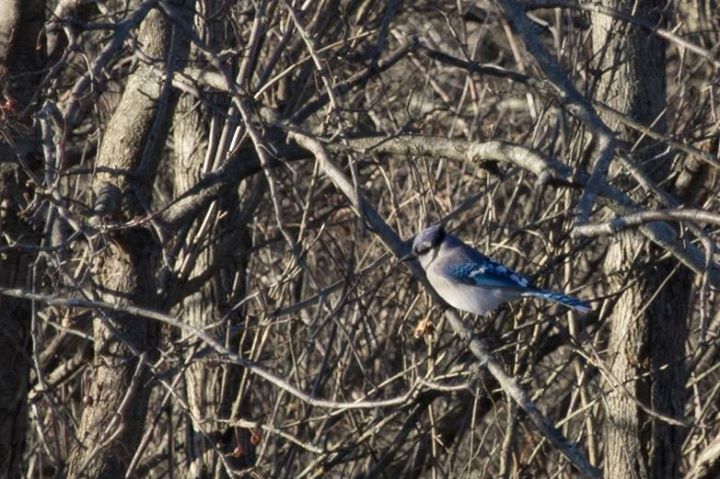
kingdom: Animalia
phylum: Chordata
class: Aves
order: Passeriformes
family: Corvidae
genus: Cyanocitta
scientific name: Cyanocitta cristata
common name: Blue jay
